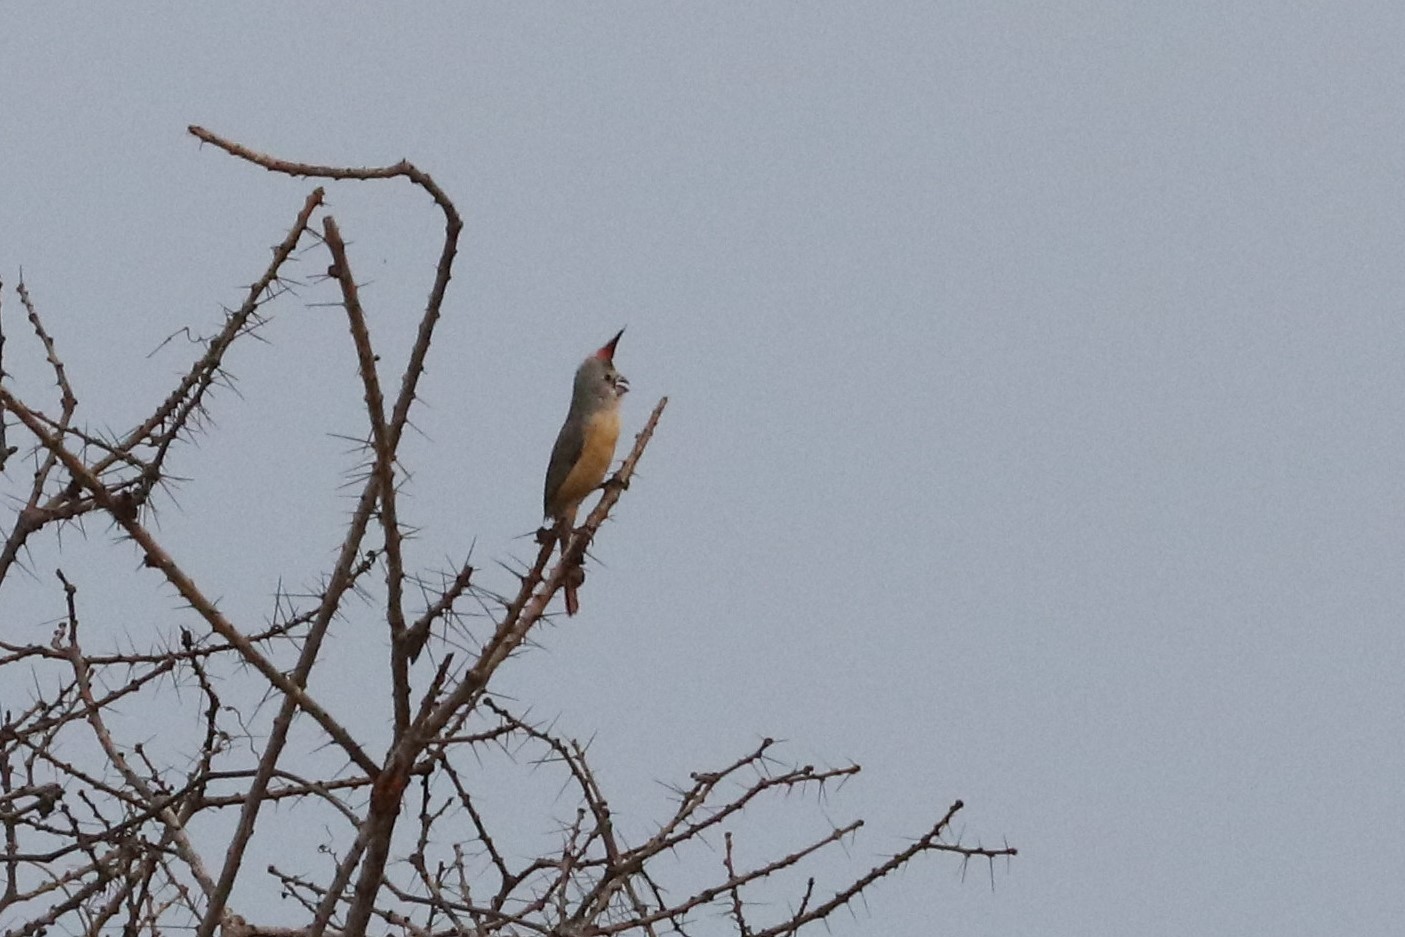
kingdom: Animalia
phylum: Chordata
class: Aves
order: Passeriformes
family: Cardinalidae
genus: Cardinalis
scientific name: Cardinalis phoeniceus
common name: Vermilion cardinal
